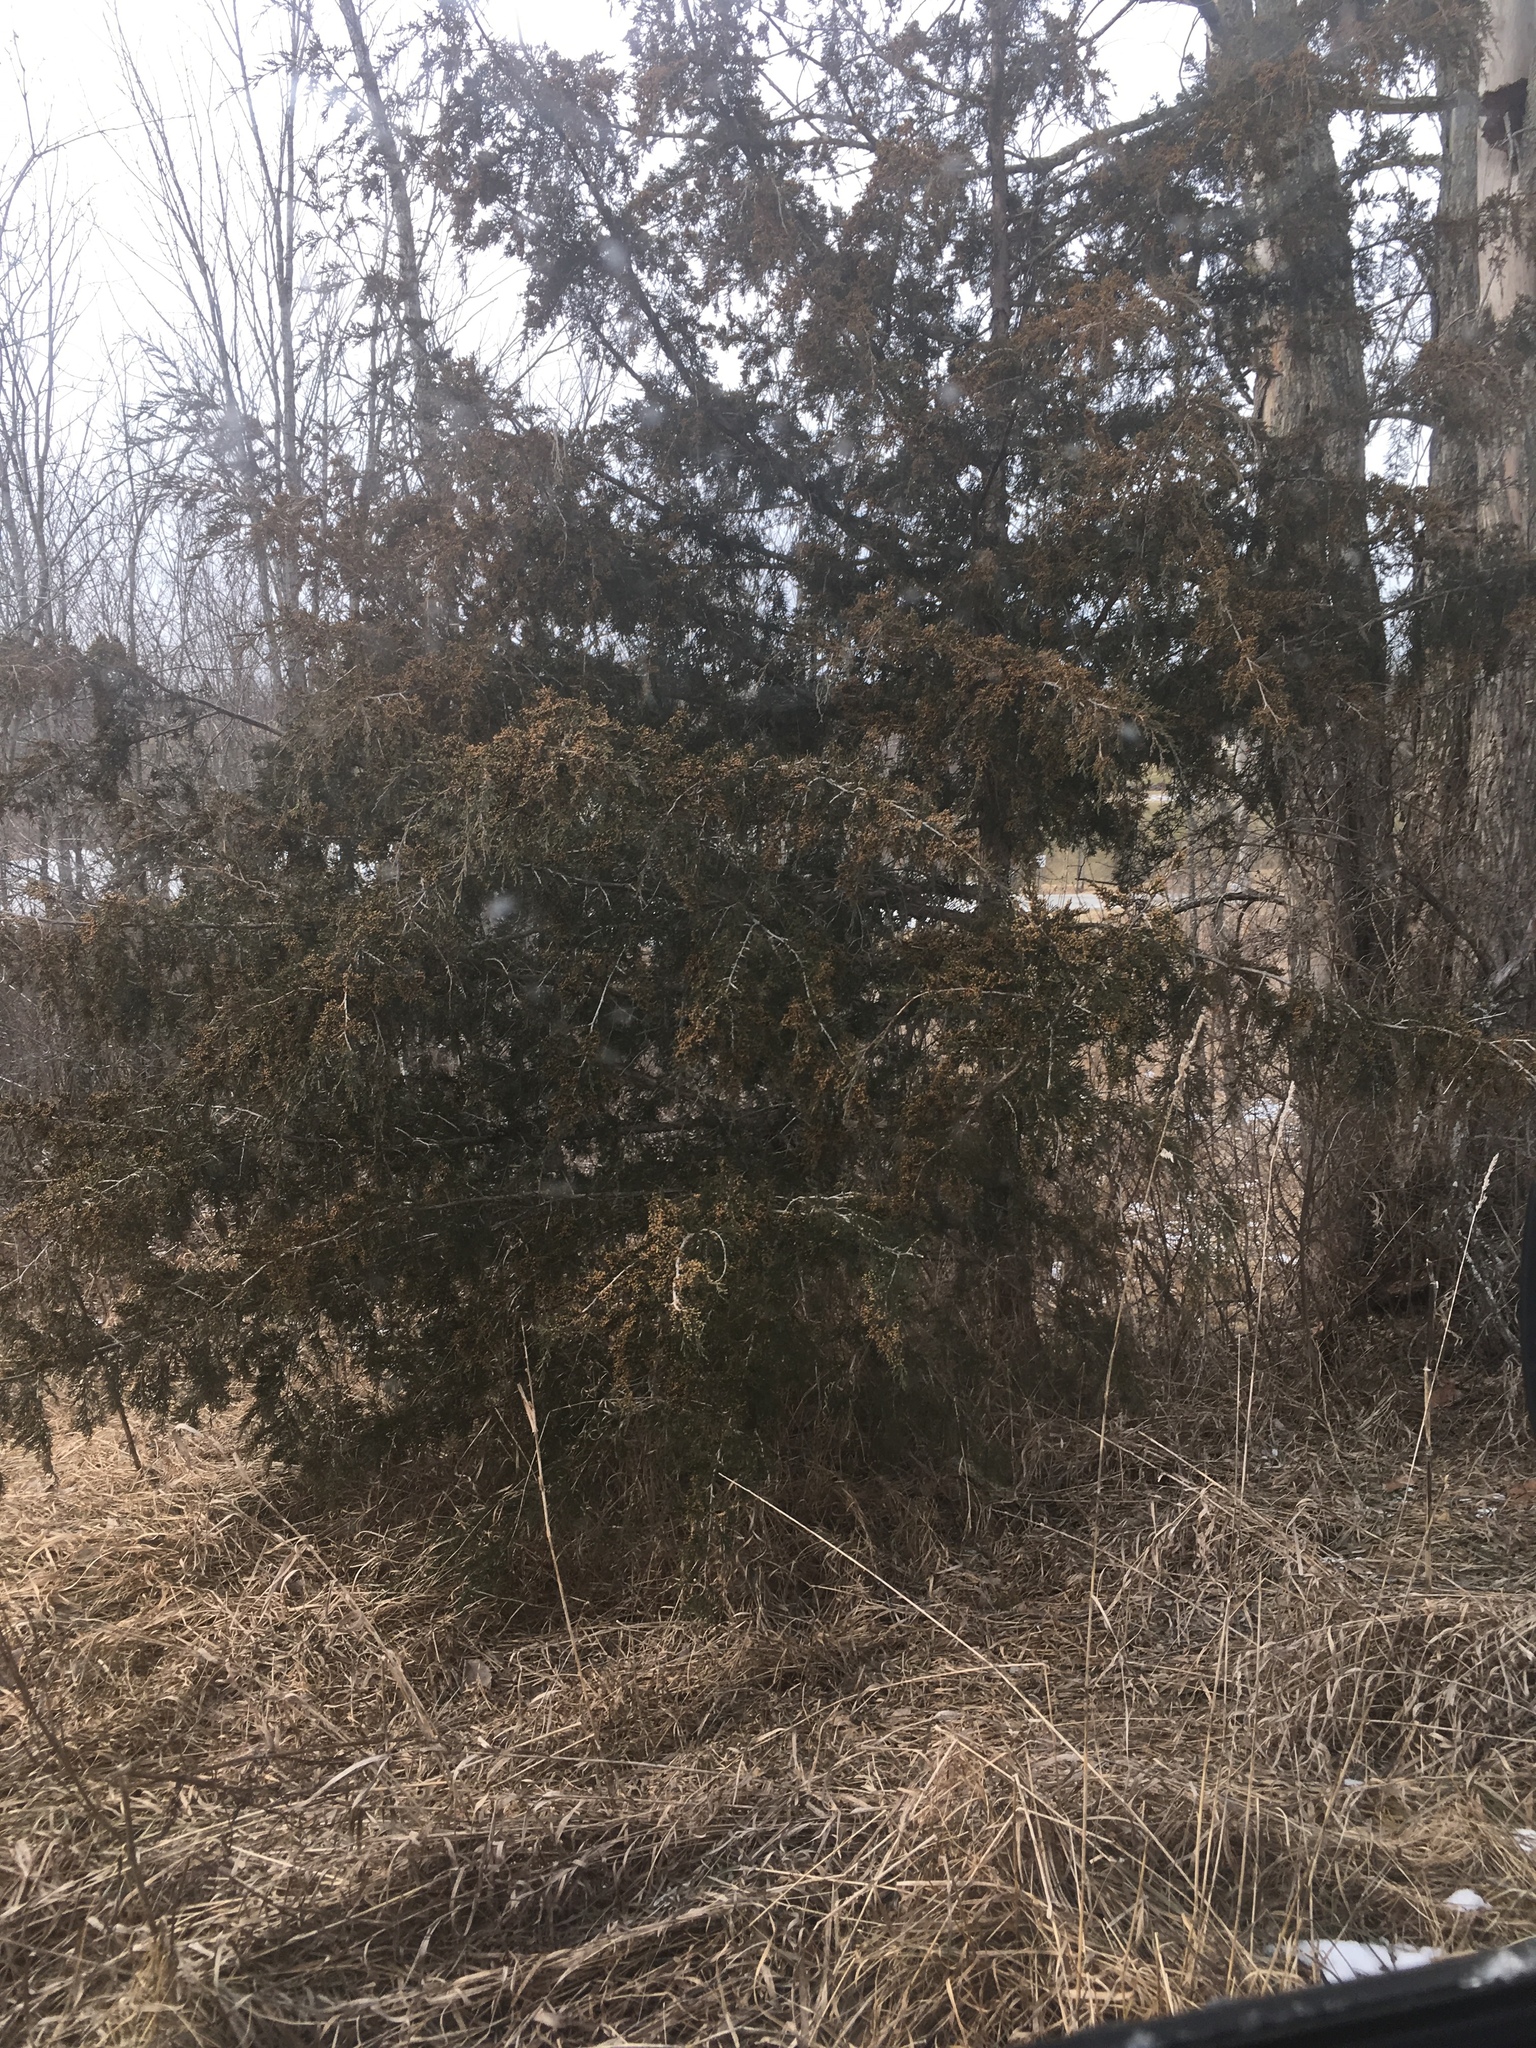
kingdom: Plantae
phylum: Tracheophyta
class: Pinopsida
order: Pinales
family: Cupressaceae
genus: Juniperus
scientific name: Juniperus virginiana
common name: Red juniper
